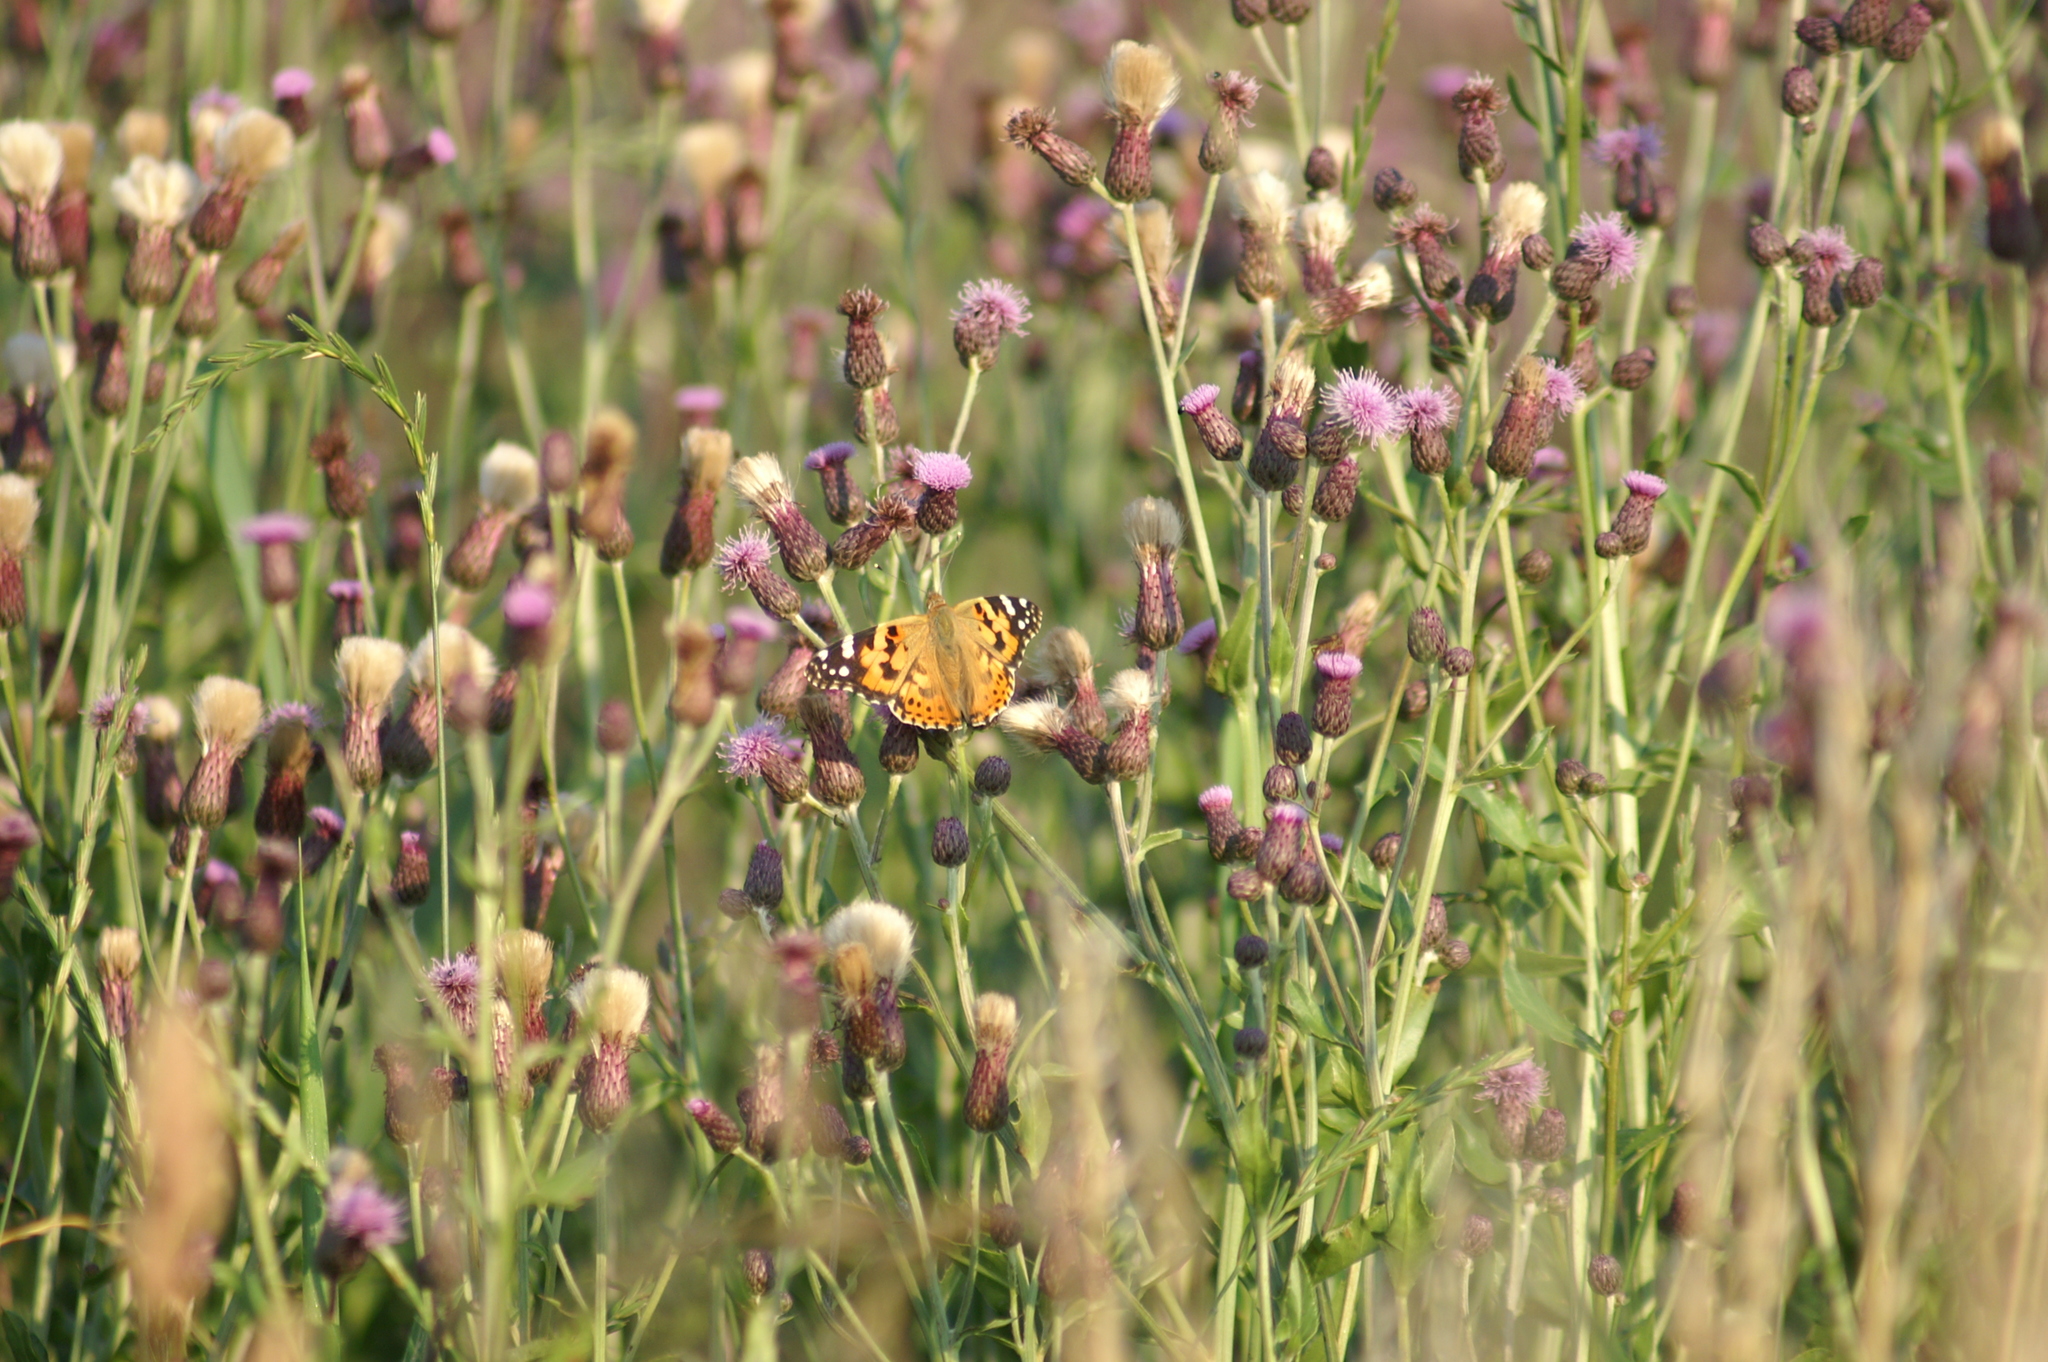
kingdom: Animalia
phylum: Arthropoda
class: Insecta
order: Lepidoptera
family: Nymphalidae
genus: Vanessa
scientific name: Vanessa cardui
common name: Painted lady
